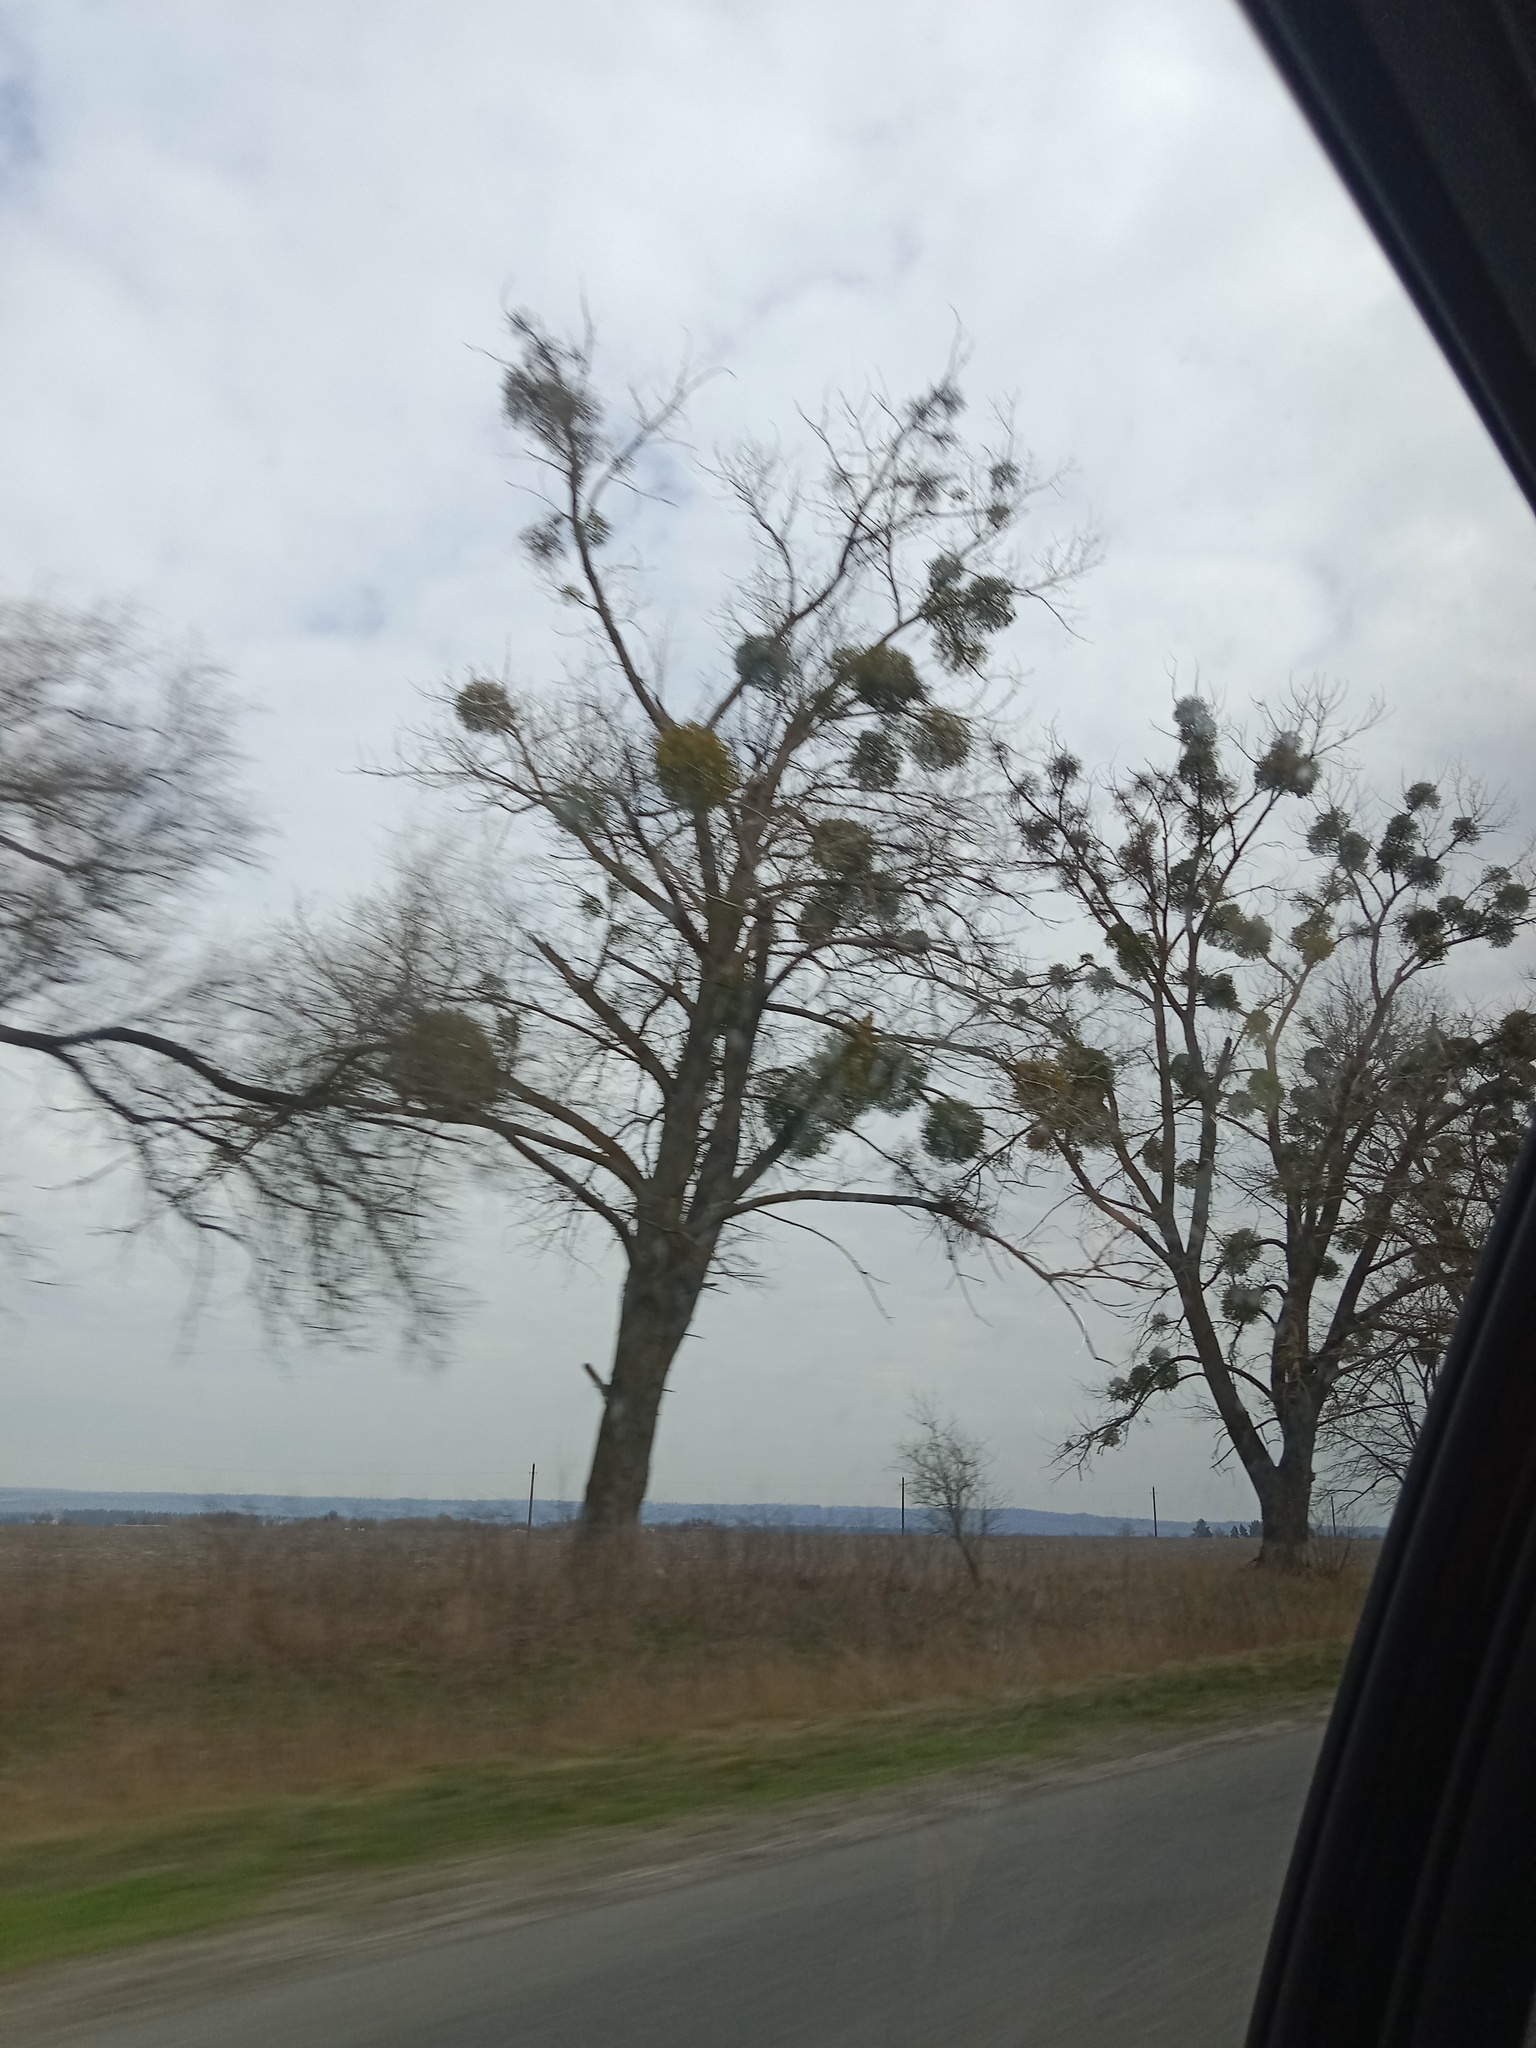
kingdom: Plantae
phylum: Tracheophyta
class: Magnoliopsida
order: Santalales
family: Viscaceae
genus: Viscum
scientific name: Viscum album
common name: Mistletoe
